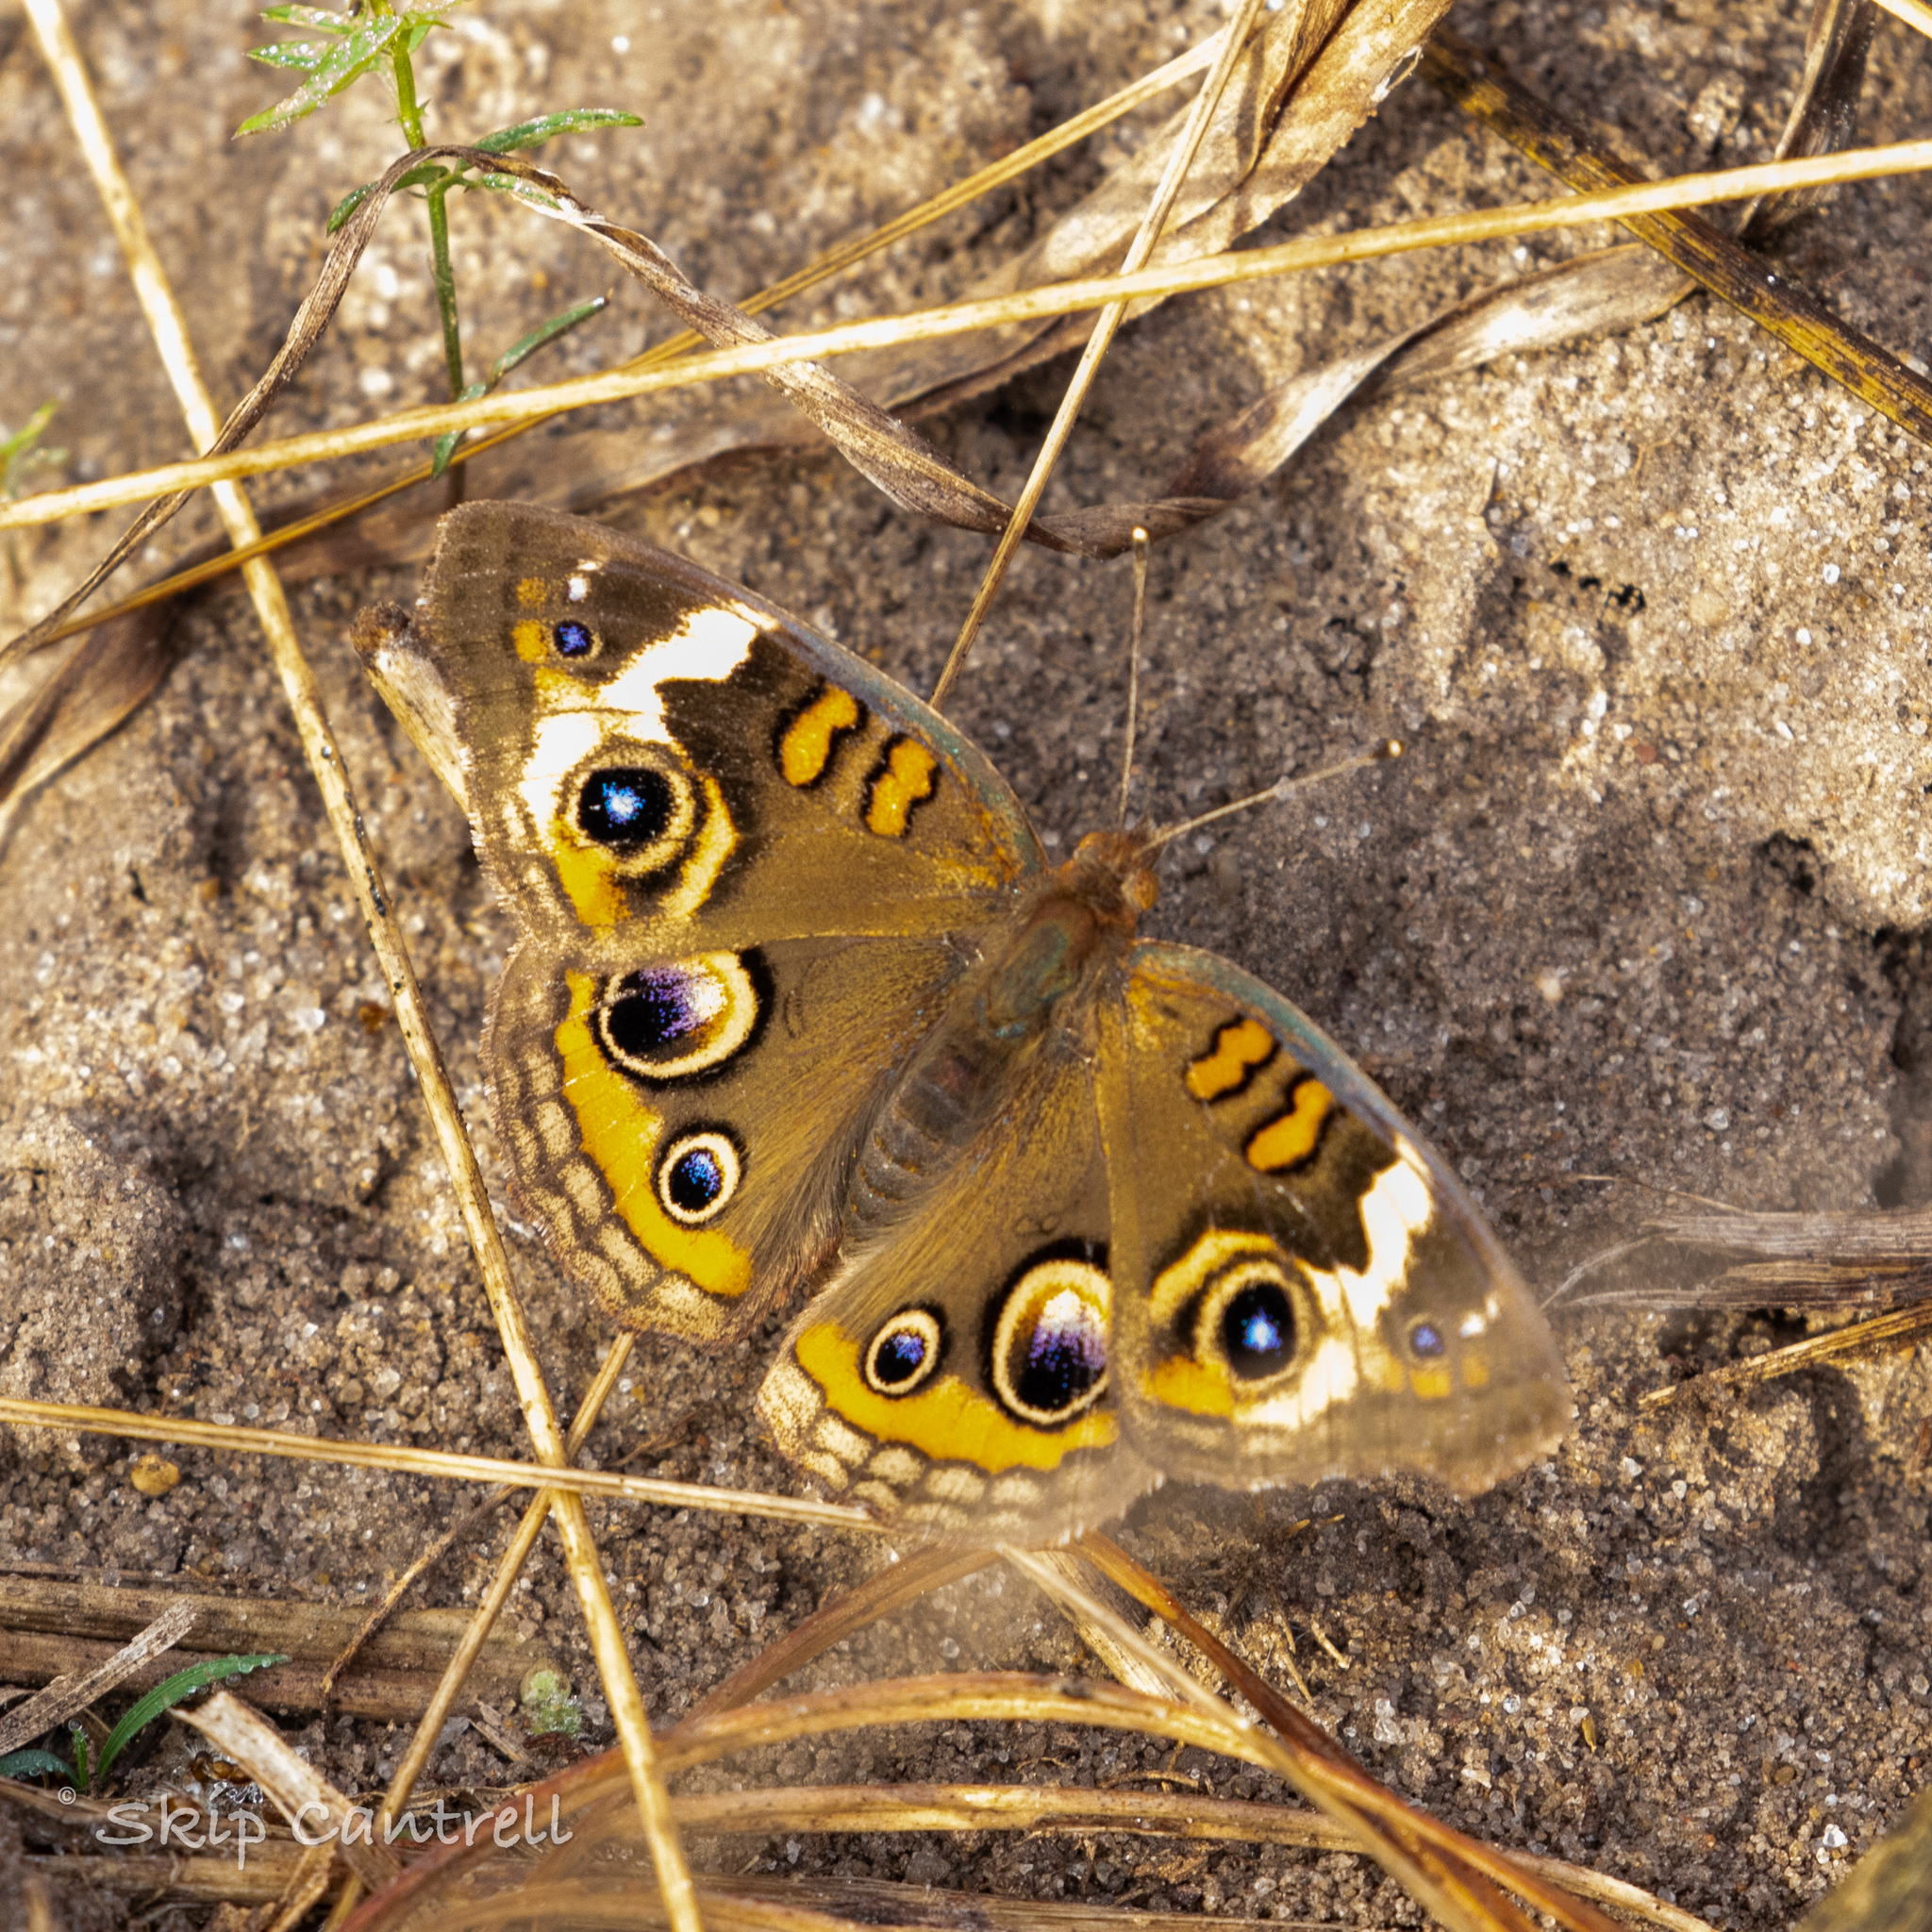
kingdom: Animalia
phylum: Arthropoda
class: Insecta
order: Lepidoptera
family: Nymphalidae
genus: Junonia
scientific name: Junonia coenia
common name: Common buckeye
